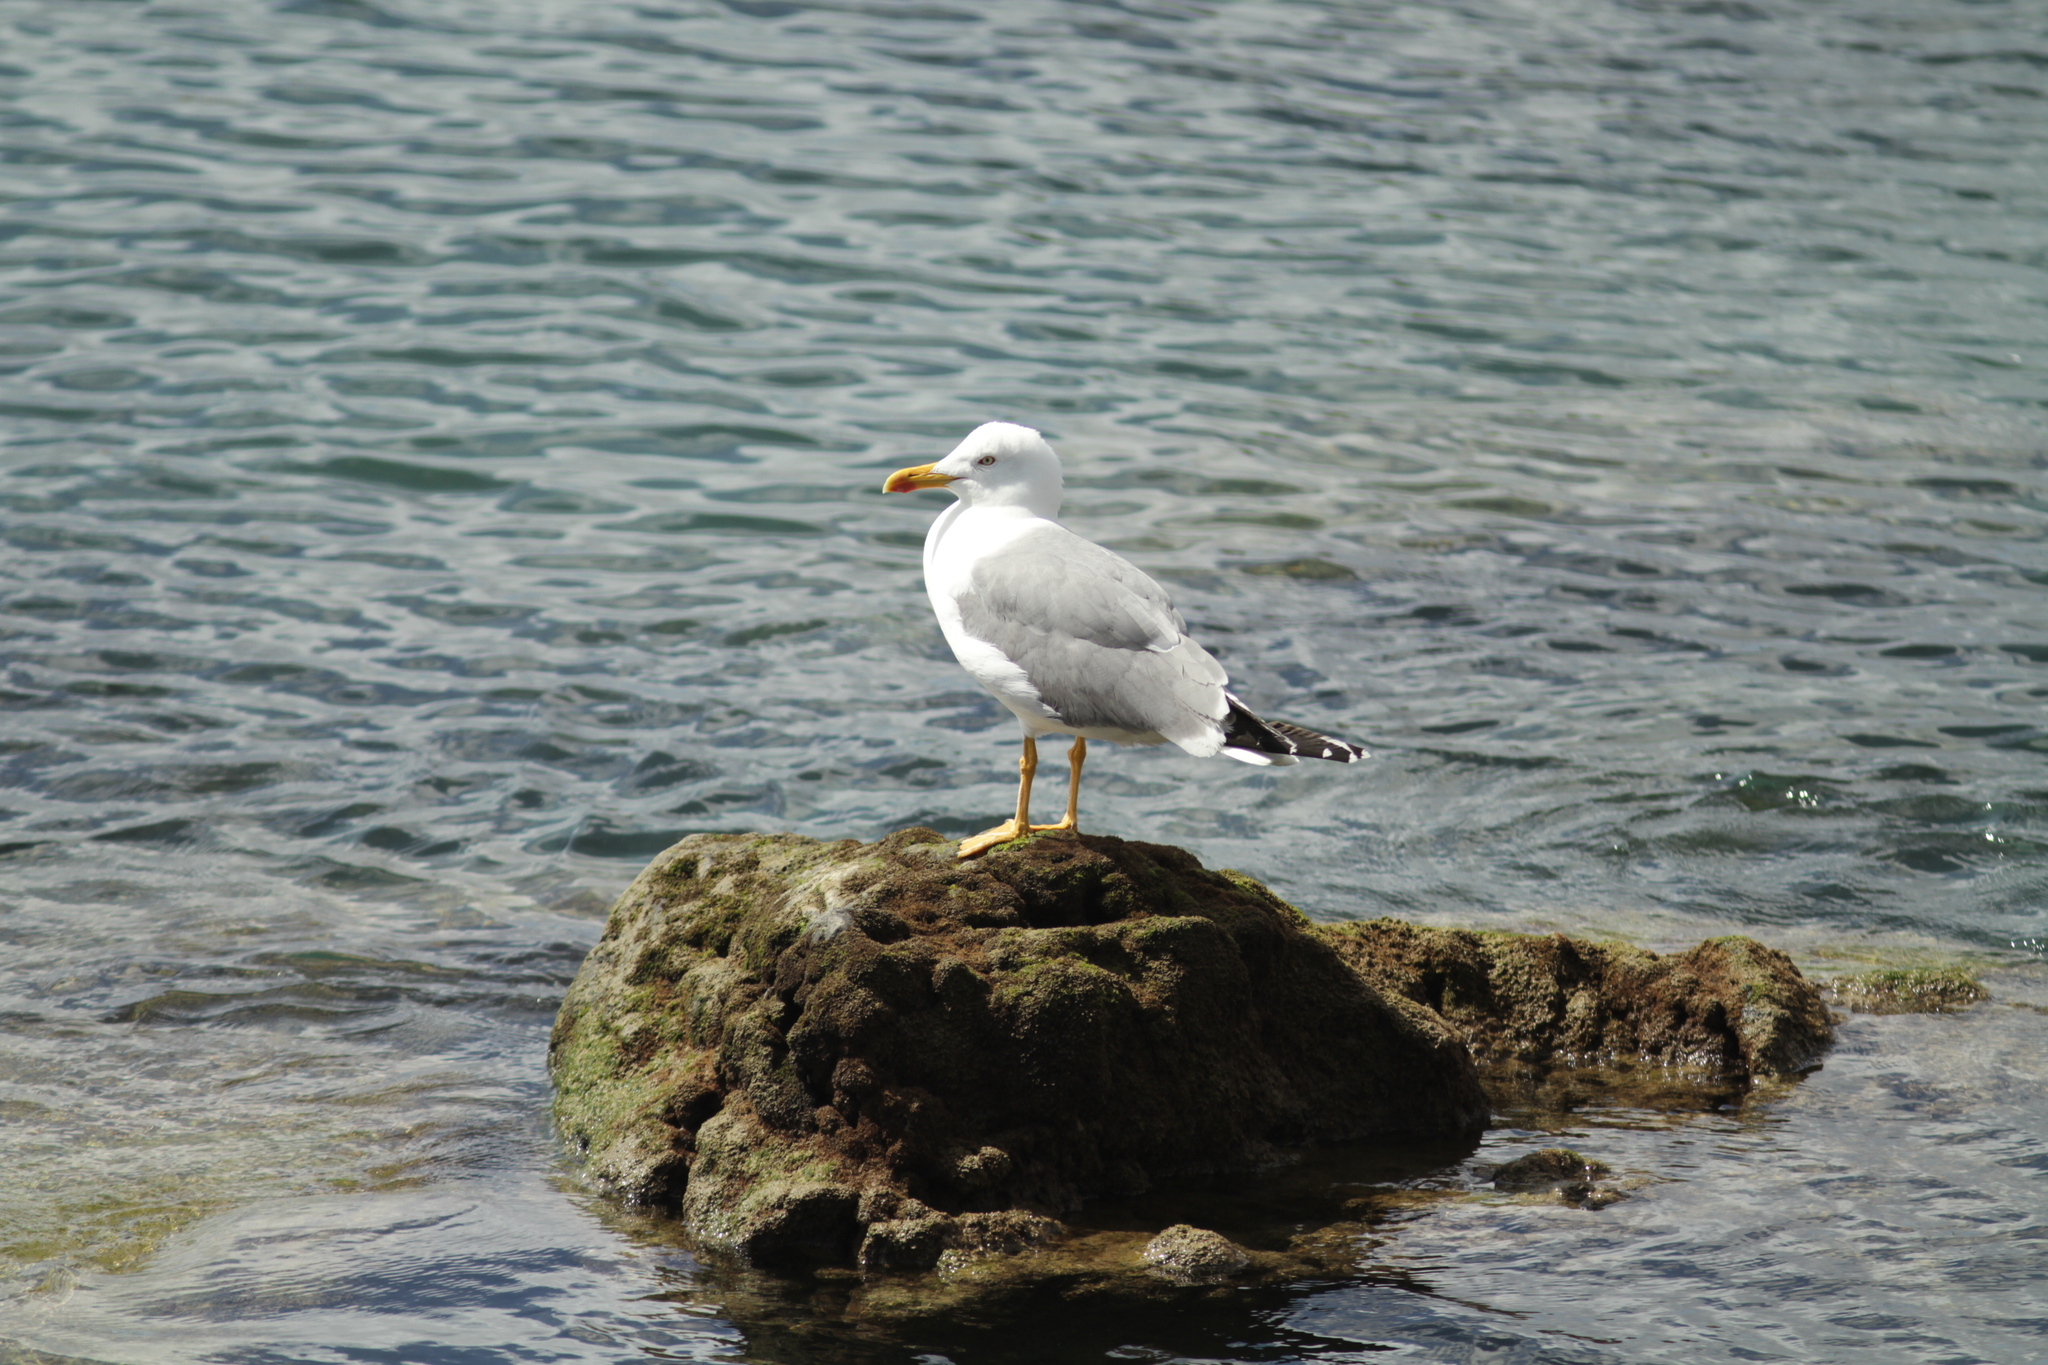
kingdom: Animalia
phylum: Chordata
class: Aves
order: Charadriiformes
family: Laridae
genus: Larus
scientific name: Larus michahellis
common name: Yellow-legged gull
